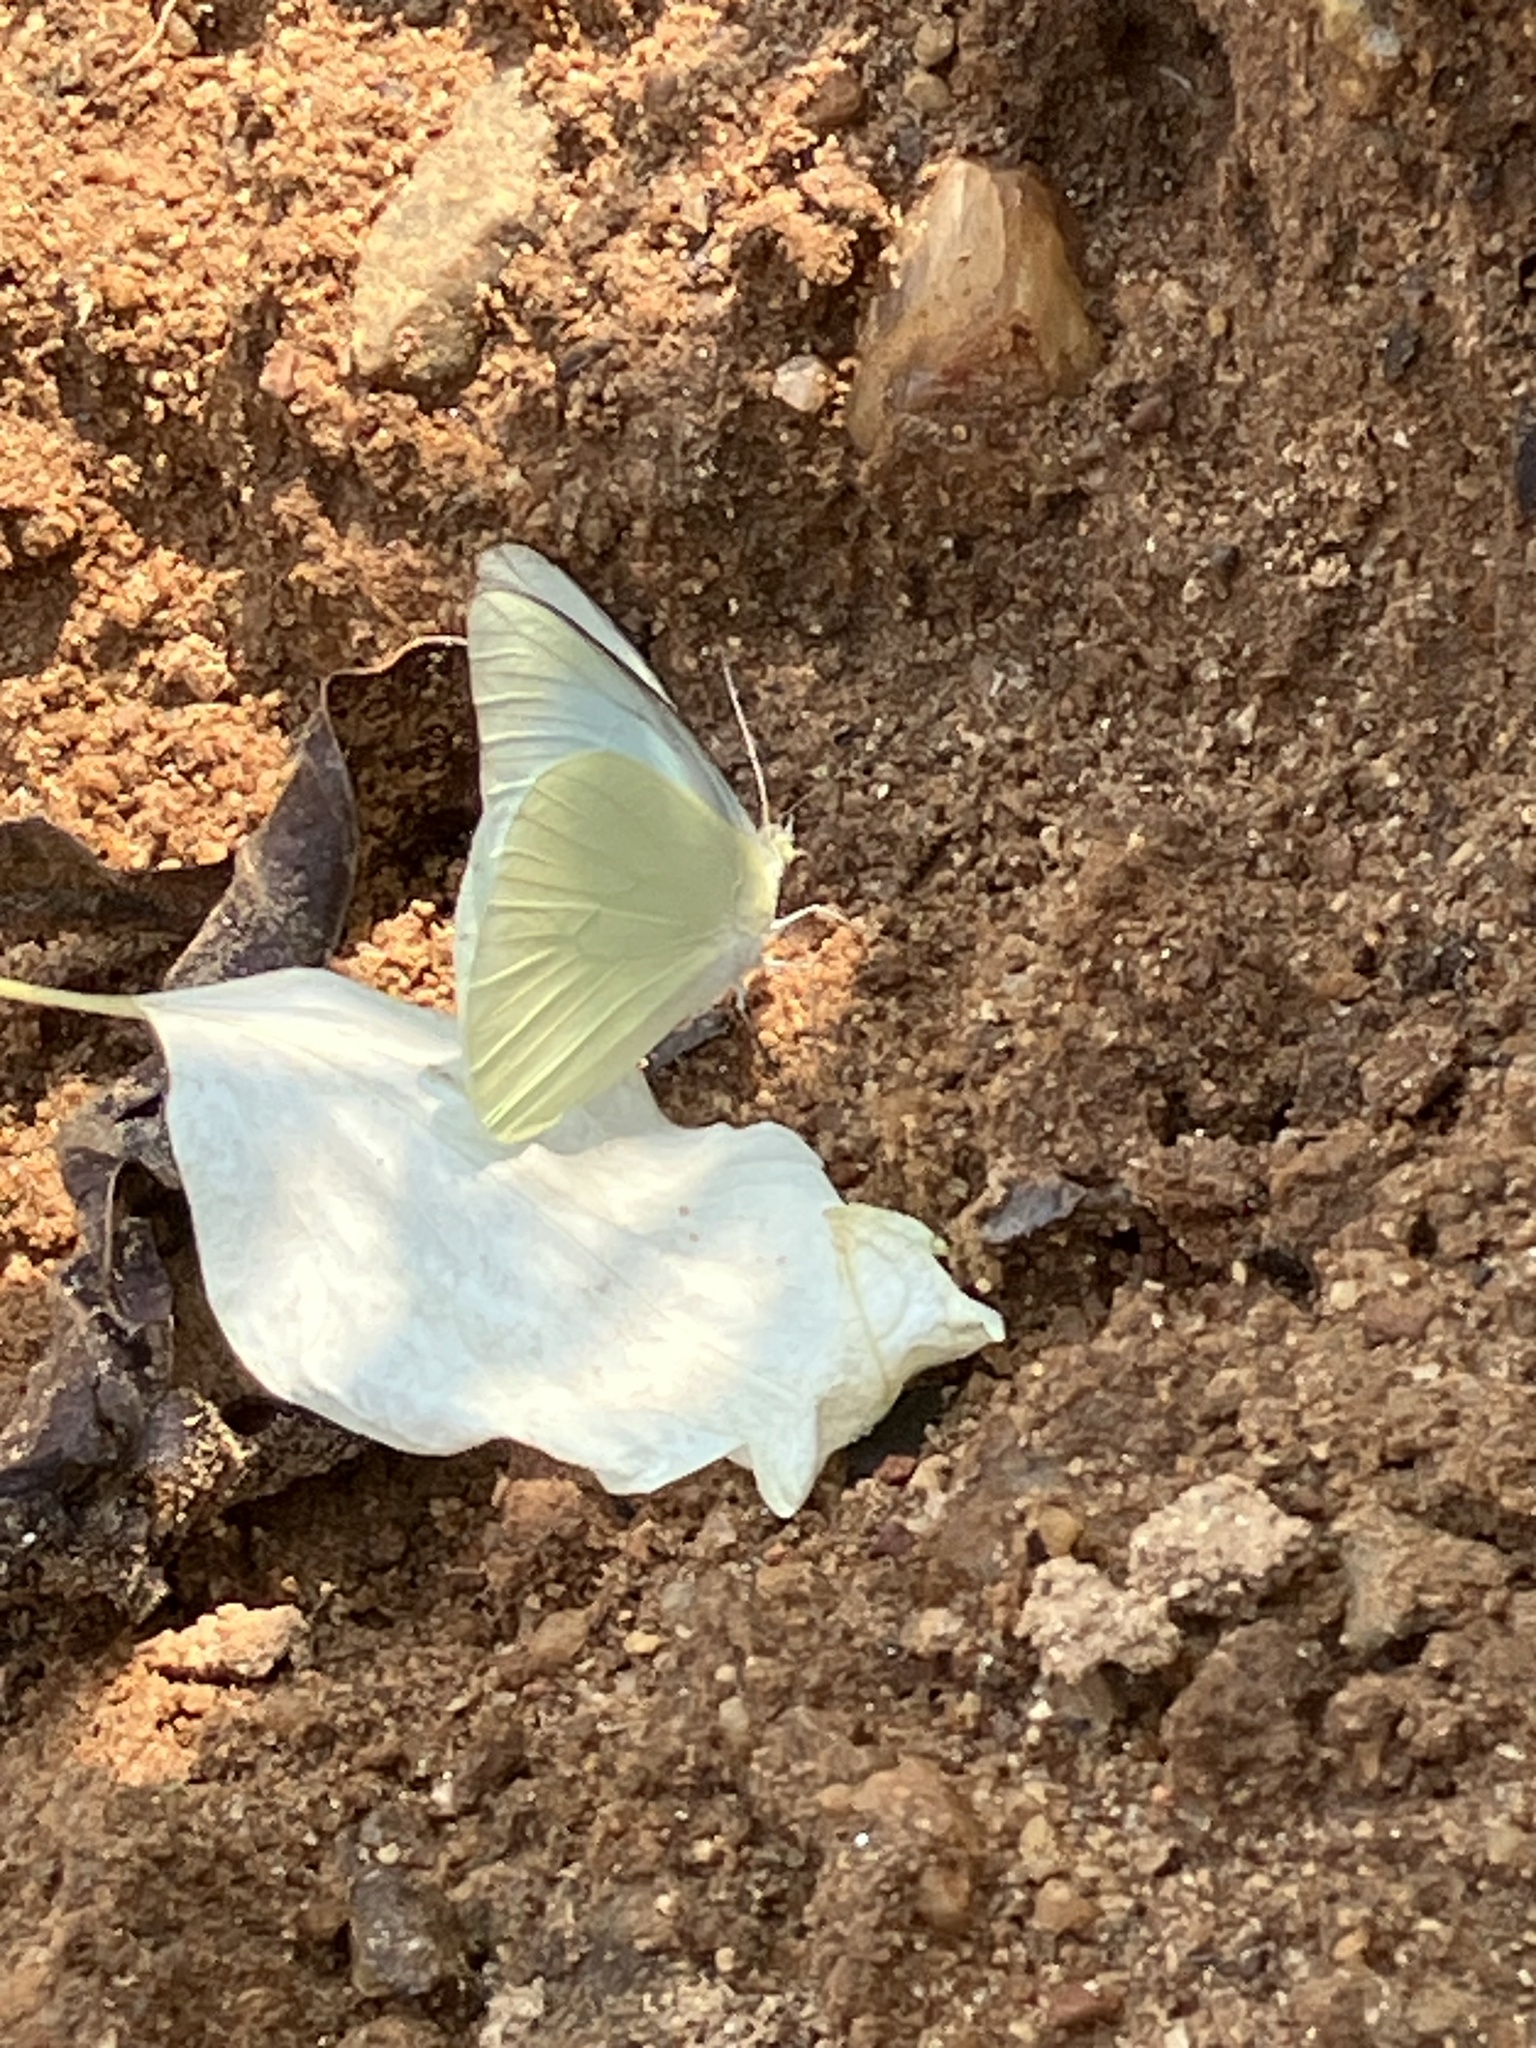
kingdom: Animalia
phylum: Arthropoda
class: Insecta
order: Lepidoptera
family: Pieridae
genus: Appias
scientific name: Appias albina
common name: Common albatross
